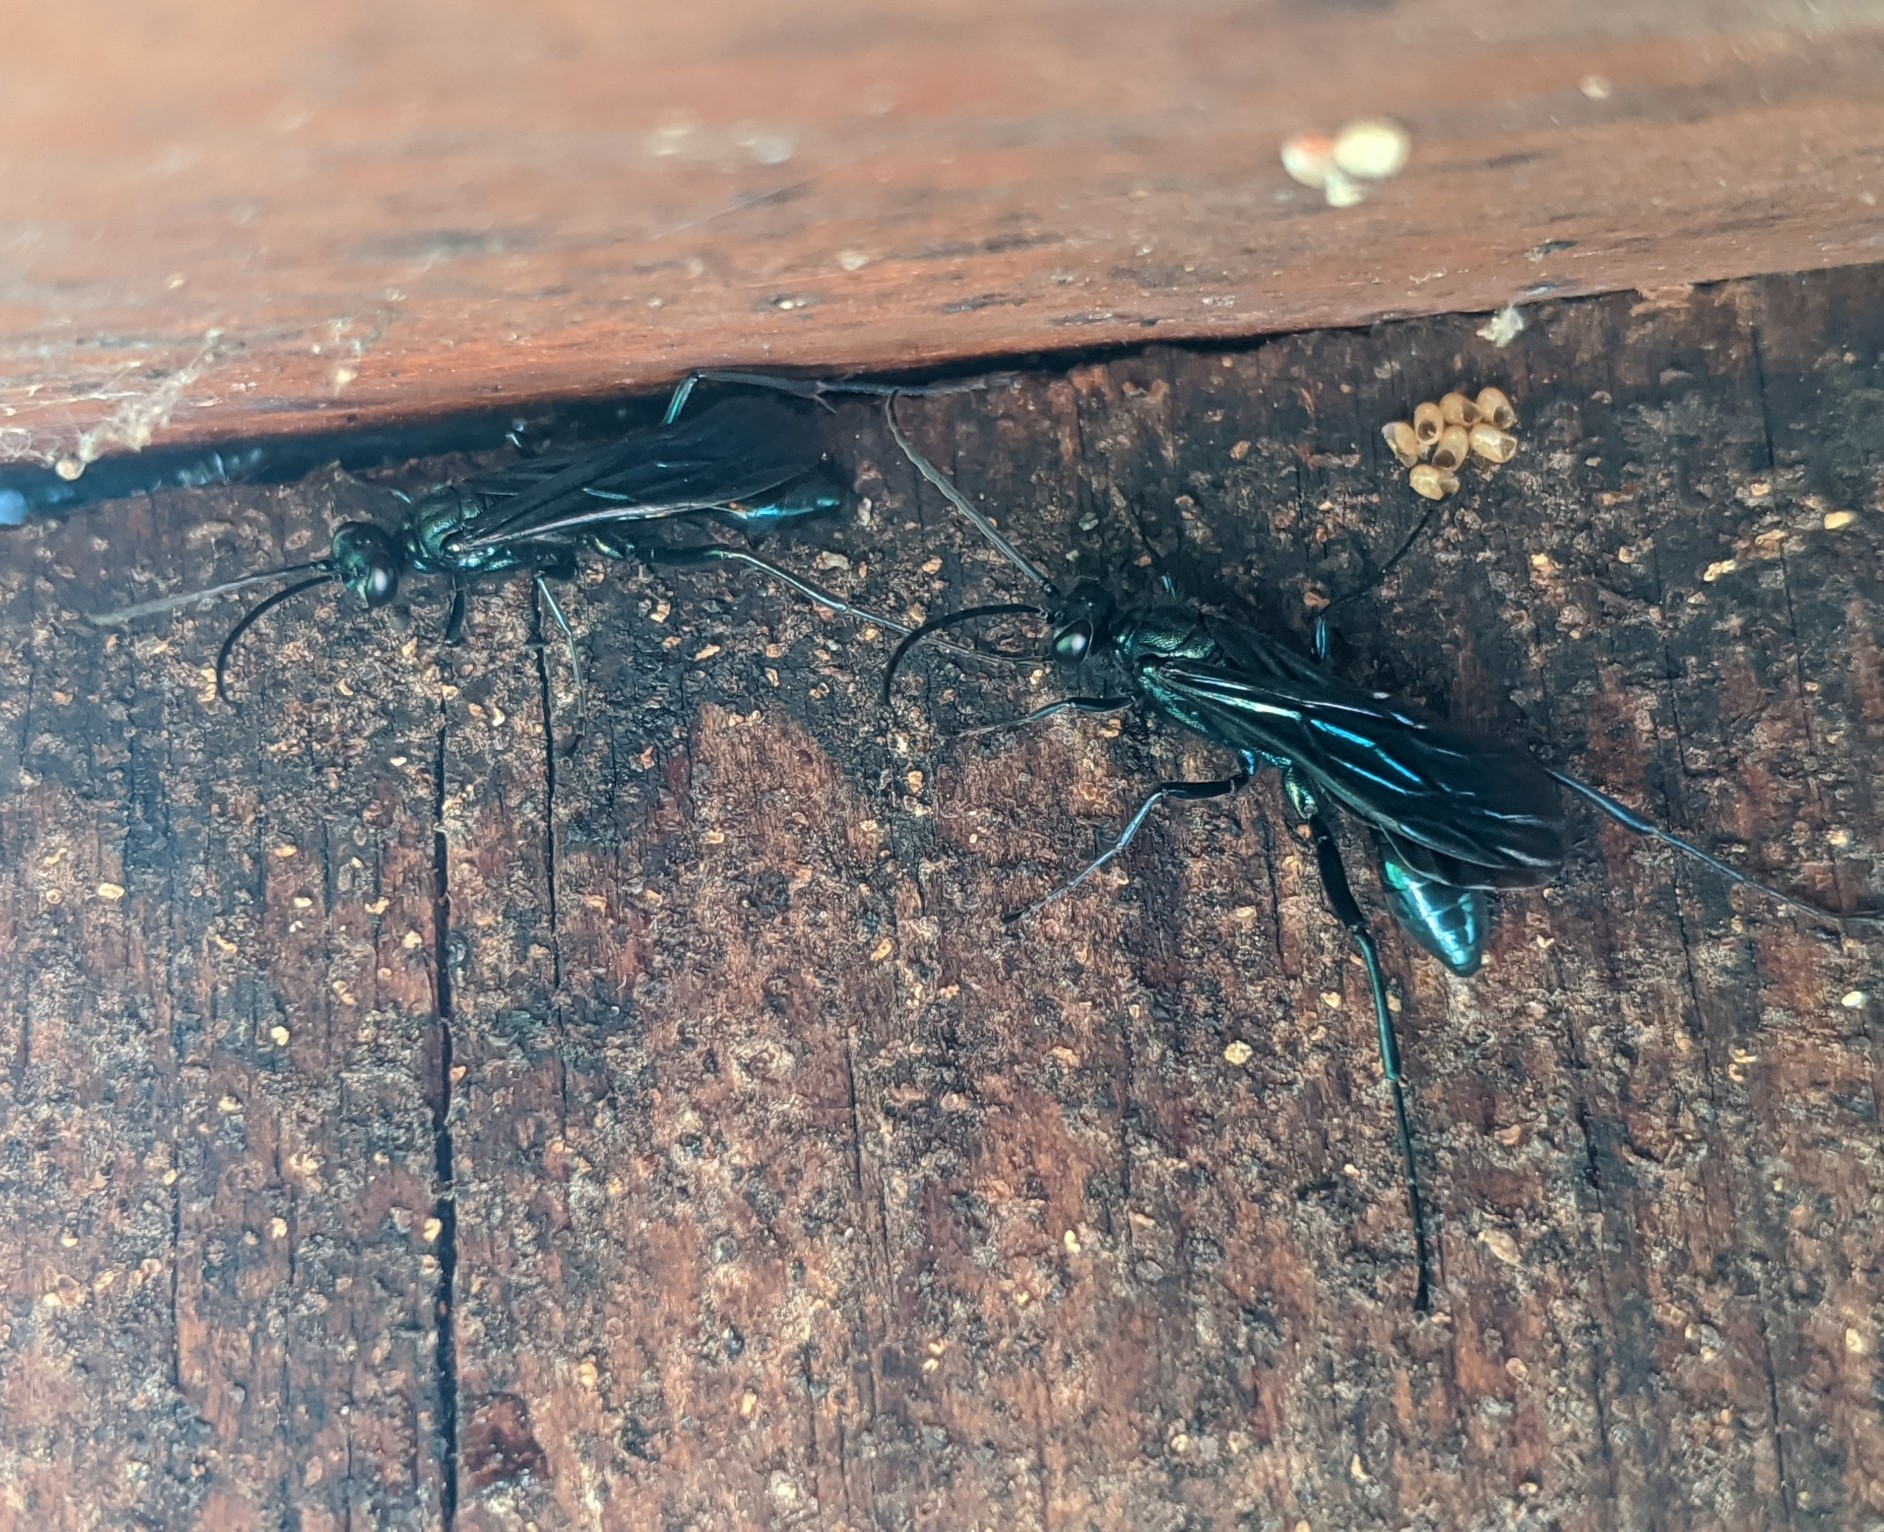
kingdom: Animalia
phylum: Arthropoda
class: Insecta
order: Hymenoptera
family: Sphecidae
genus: Chalybion
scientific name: Chalybion californicum
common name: Mud dauber
